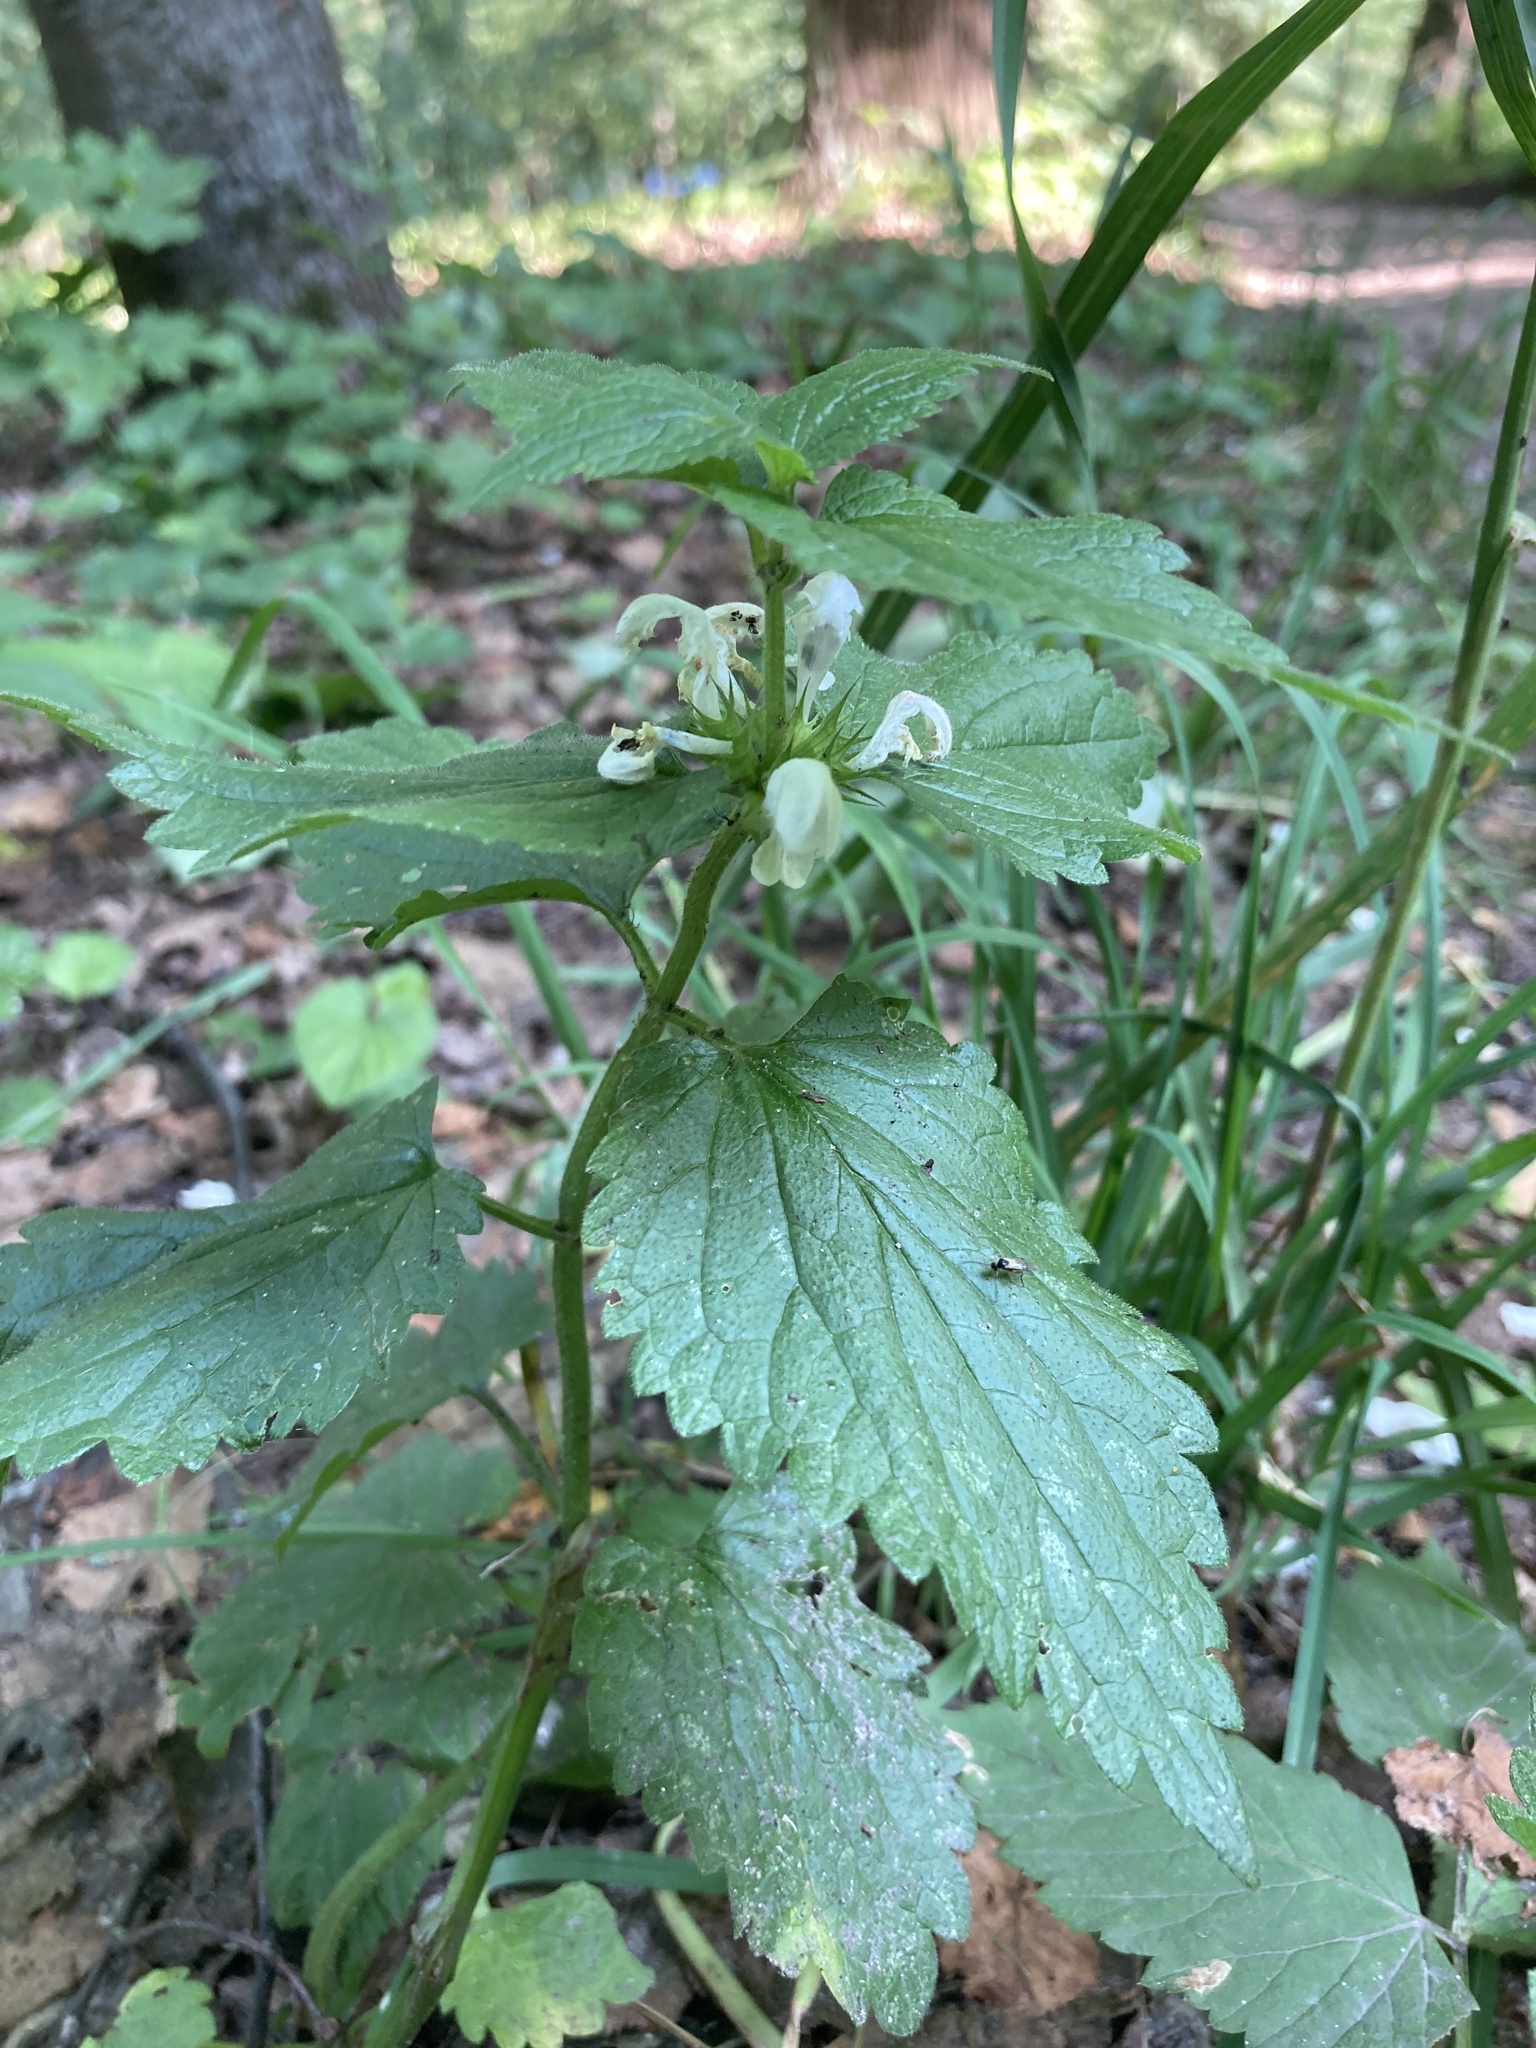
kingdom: Plantae
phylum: Tracheophyta
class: Magnoliopsida
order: Lamiales
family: Lamiaceae
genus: Lamium
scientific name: Lamium album
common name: White dead-nettle
